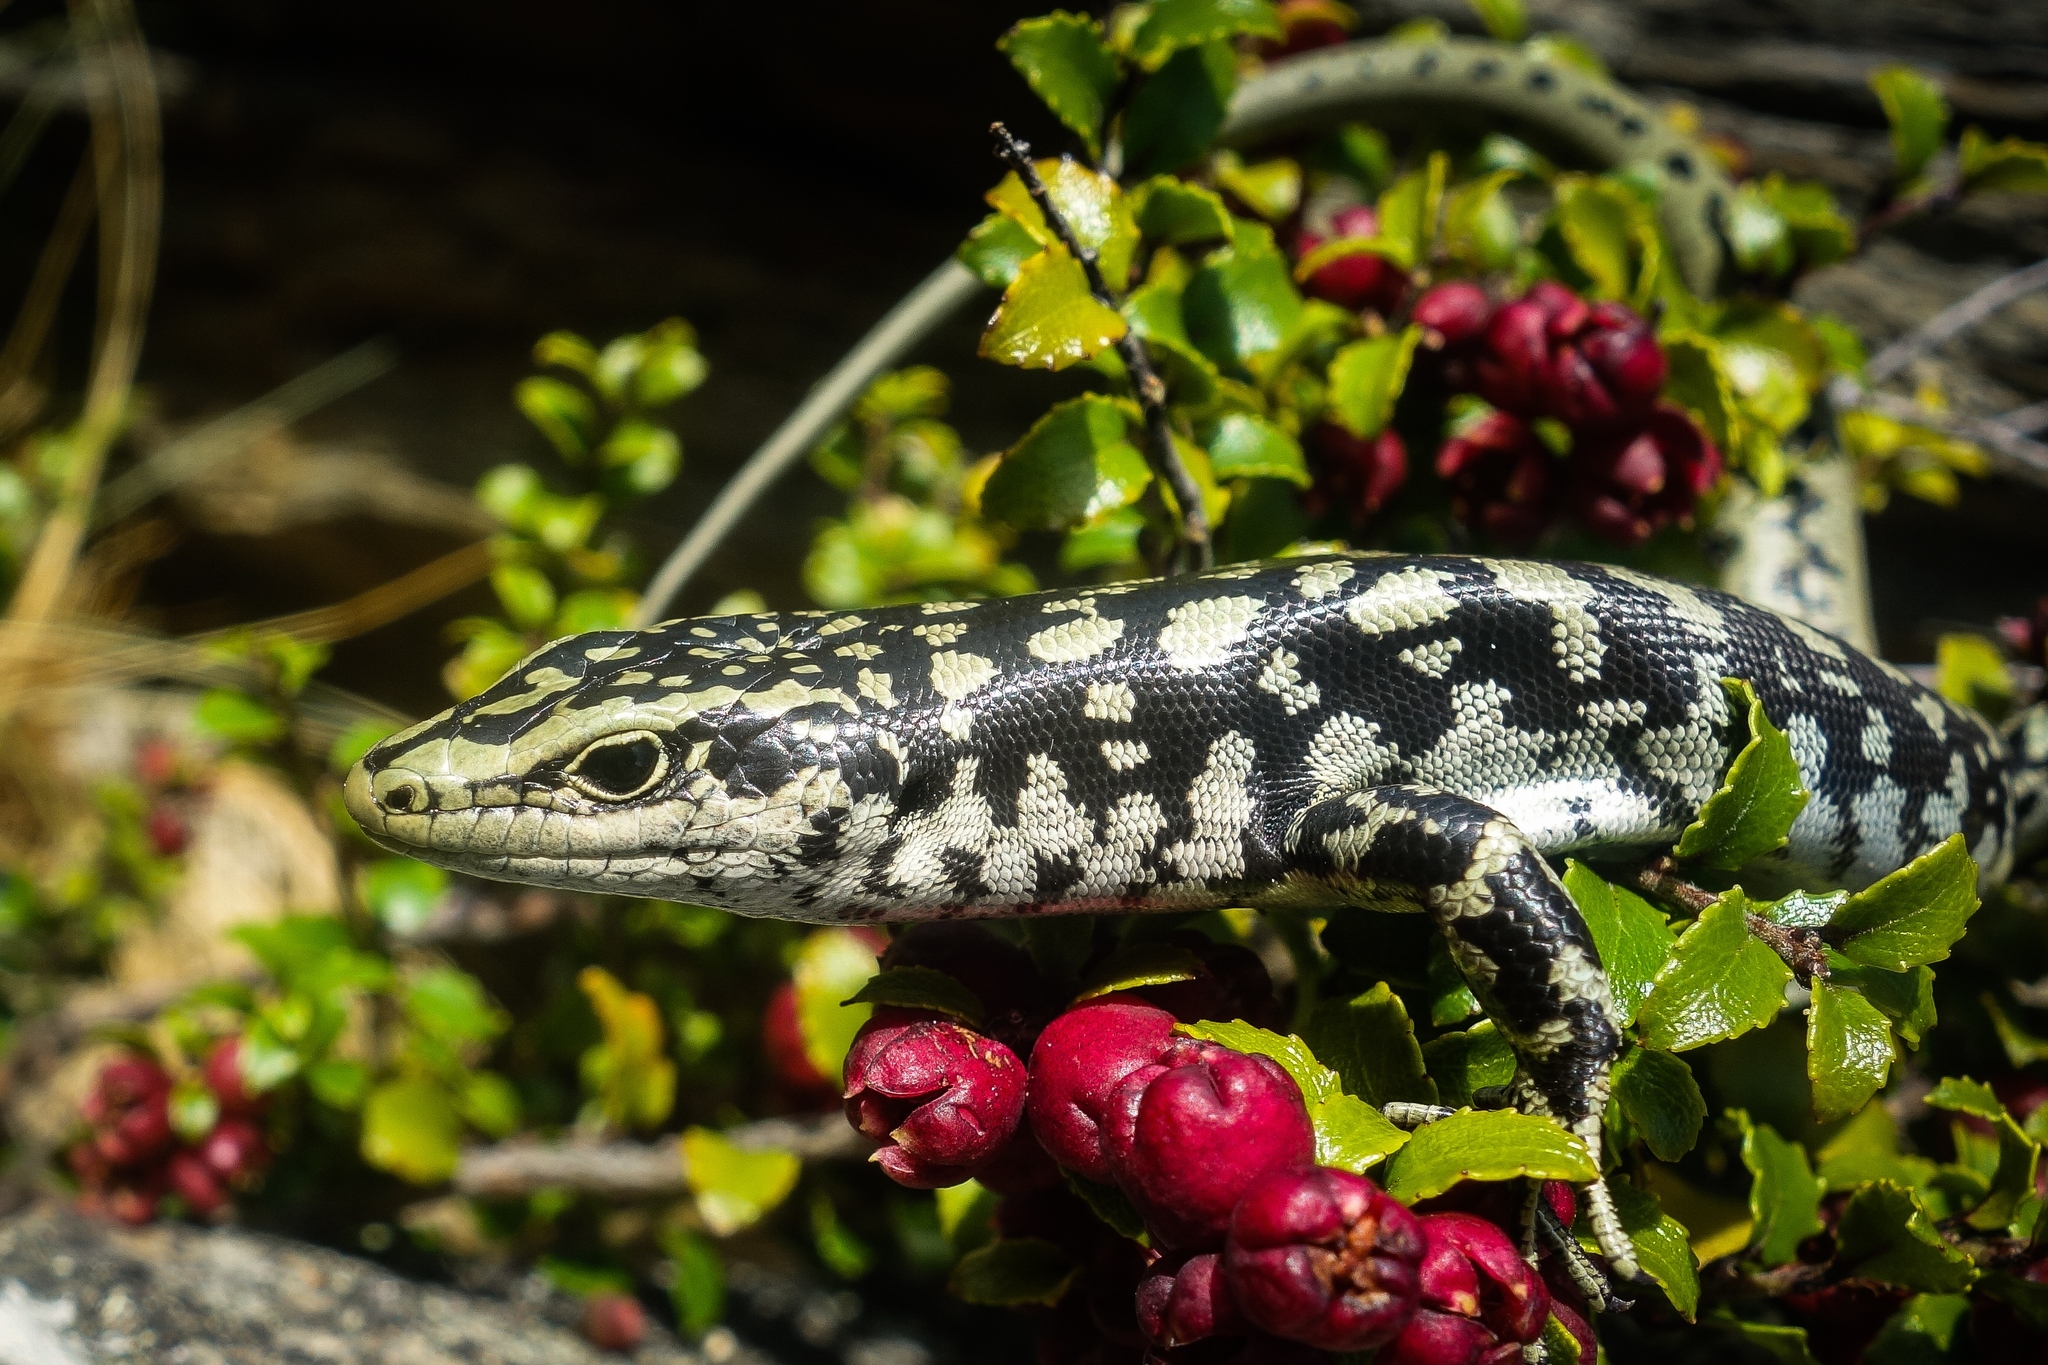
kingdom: Animalia
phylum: Chordata
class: Squamata
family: Scincidae
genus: Oligosoma
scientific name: Oligosoma otagense
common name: Otago skink
